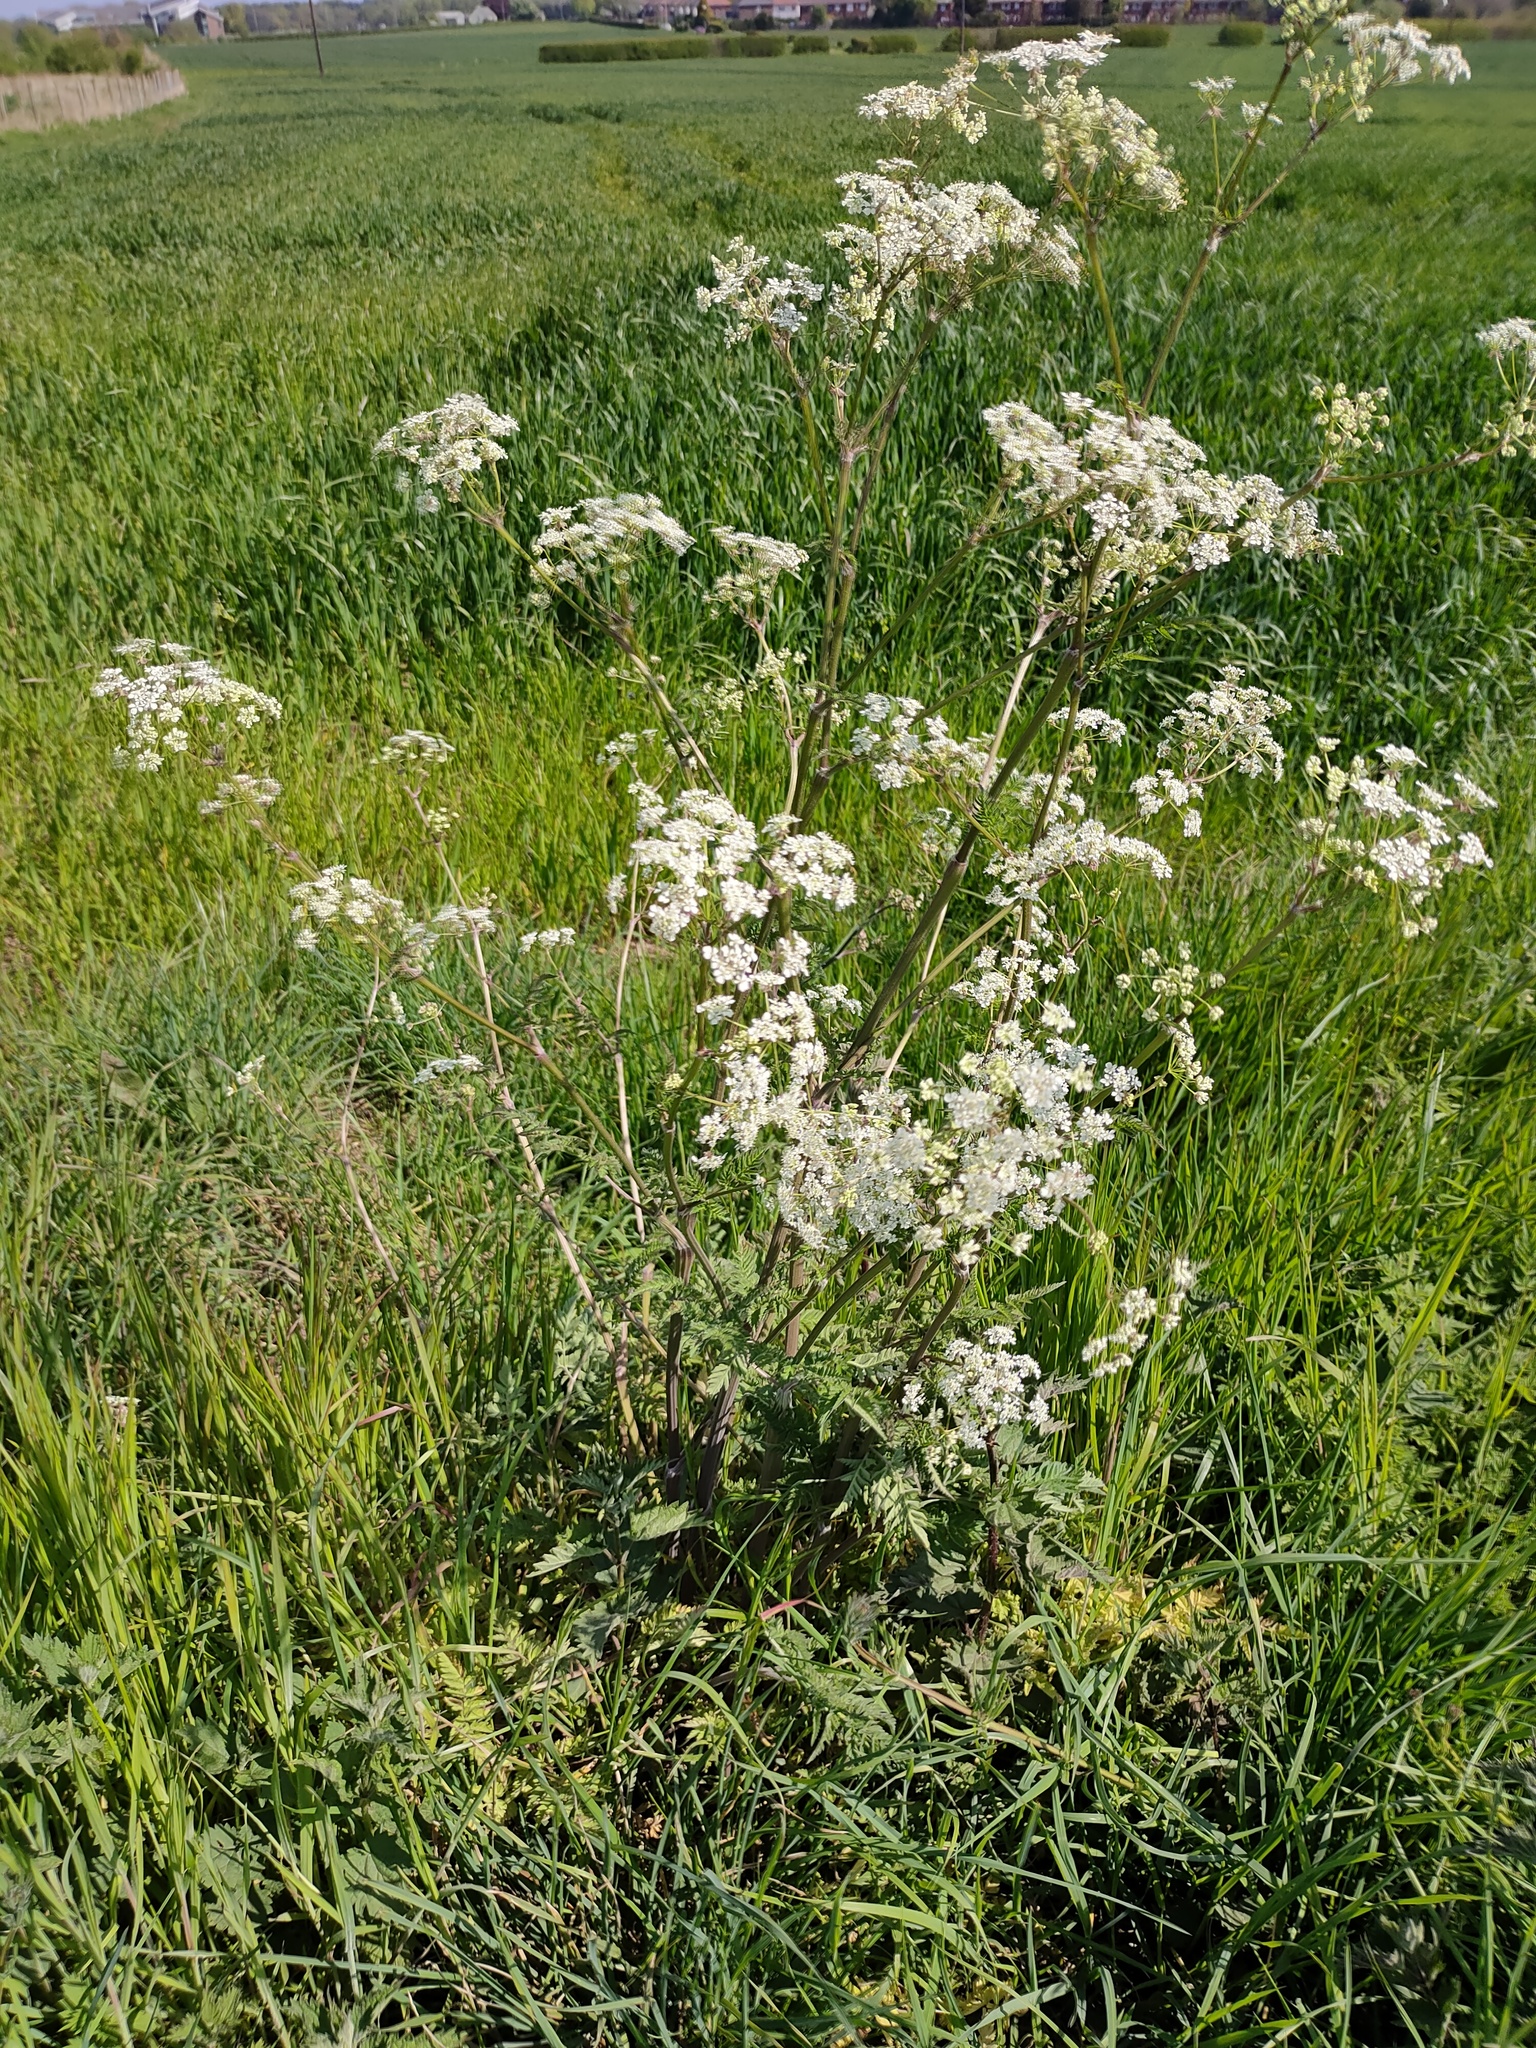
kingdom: Plantae
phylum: Tracheophyta
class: Magnoliopsida
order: Apiales
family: Apiaceae
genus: Anthriscus
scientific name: Anthriscus sylvestris
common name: Cow parsley
